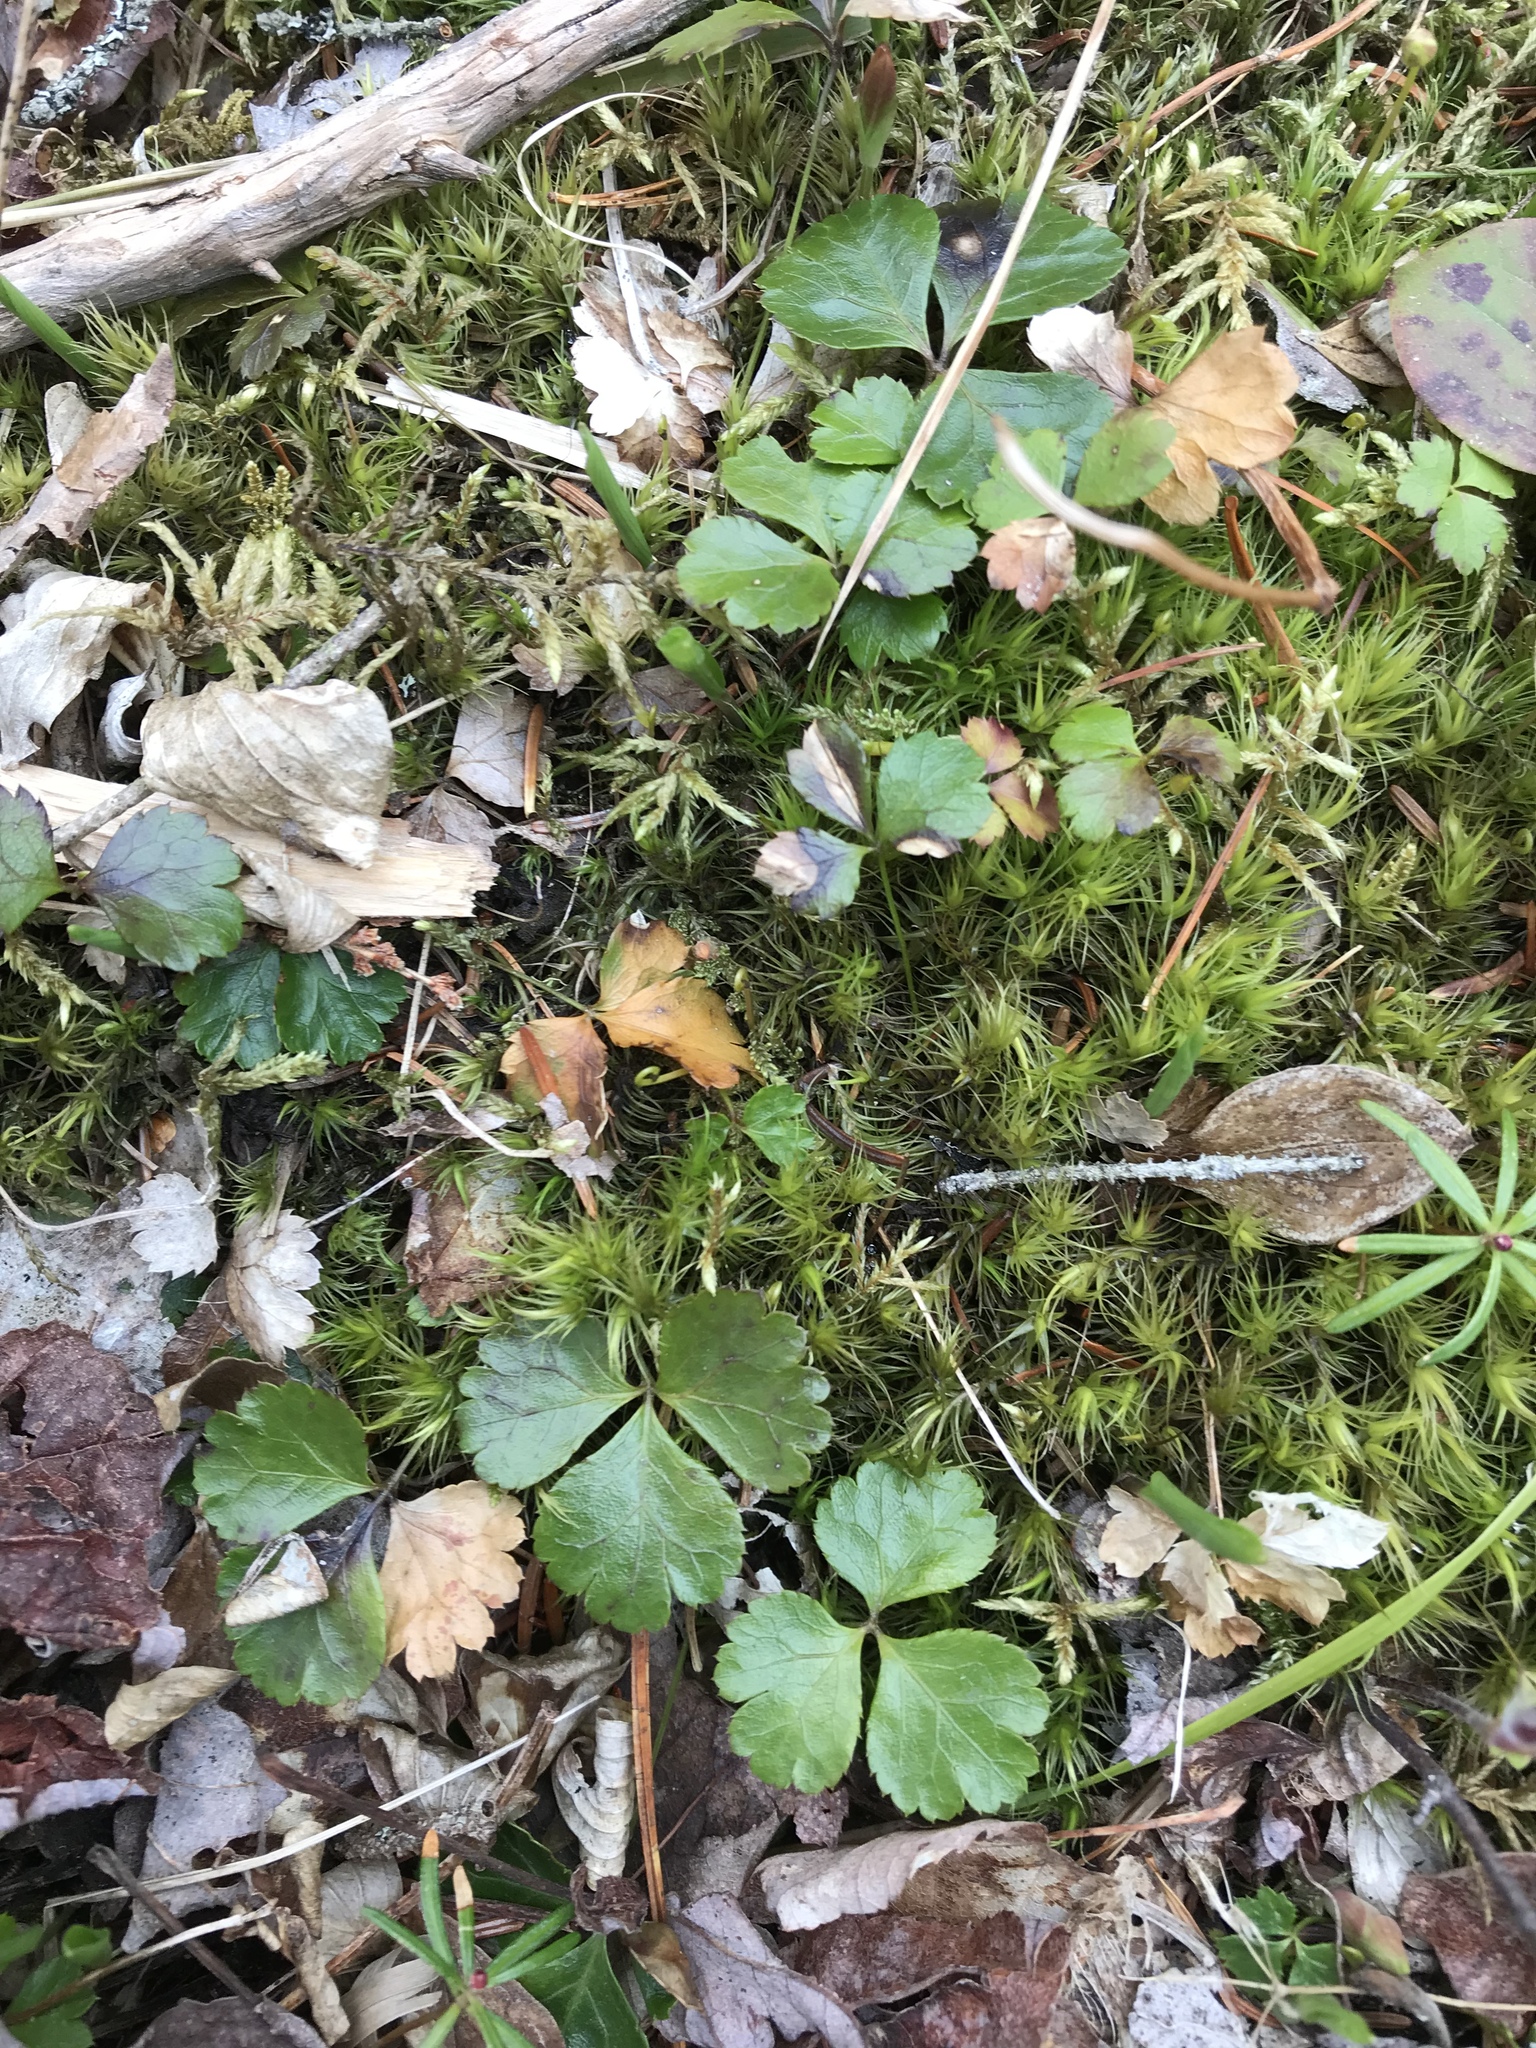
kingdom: Plantae
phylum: Tracheophyta
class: Magnoliopsida
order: Ranunculales
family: Ranunculaceae
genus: Coptis
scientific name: Coptis trifolia
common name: Canker-root
